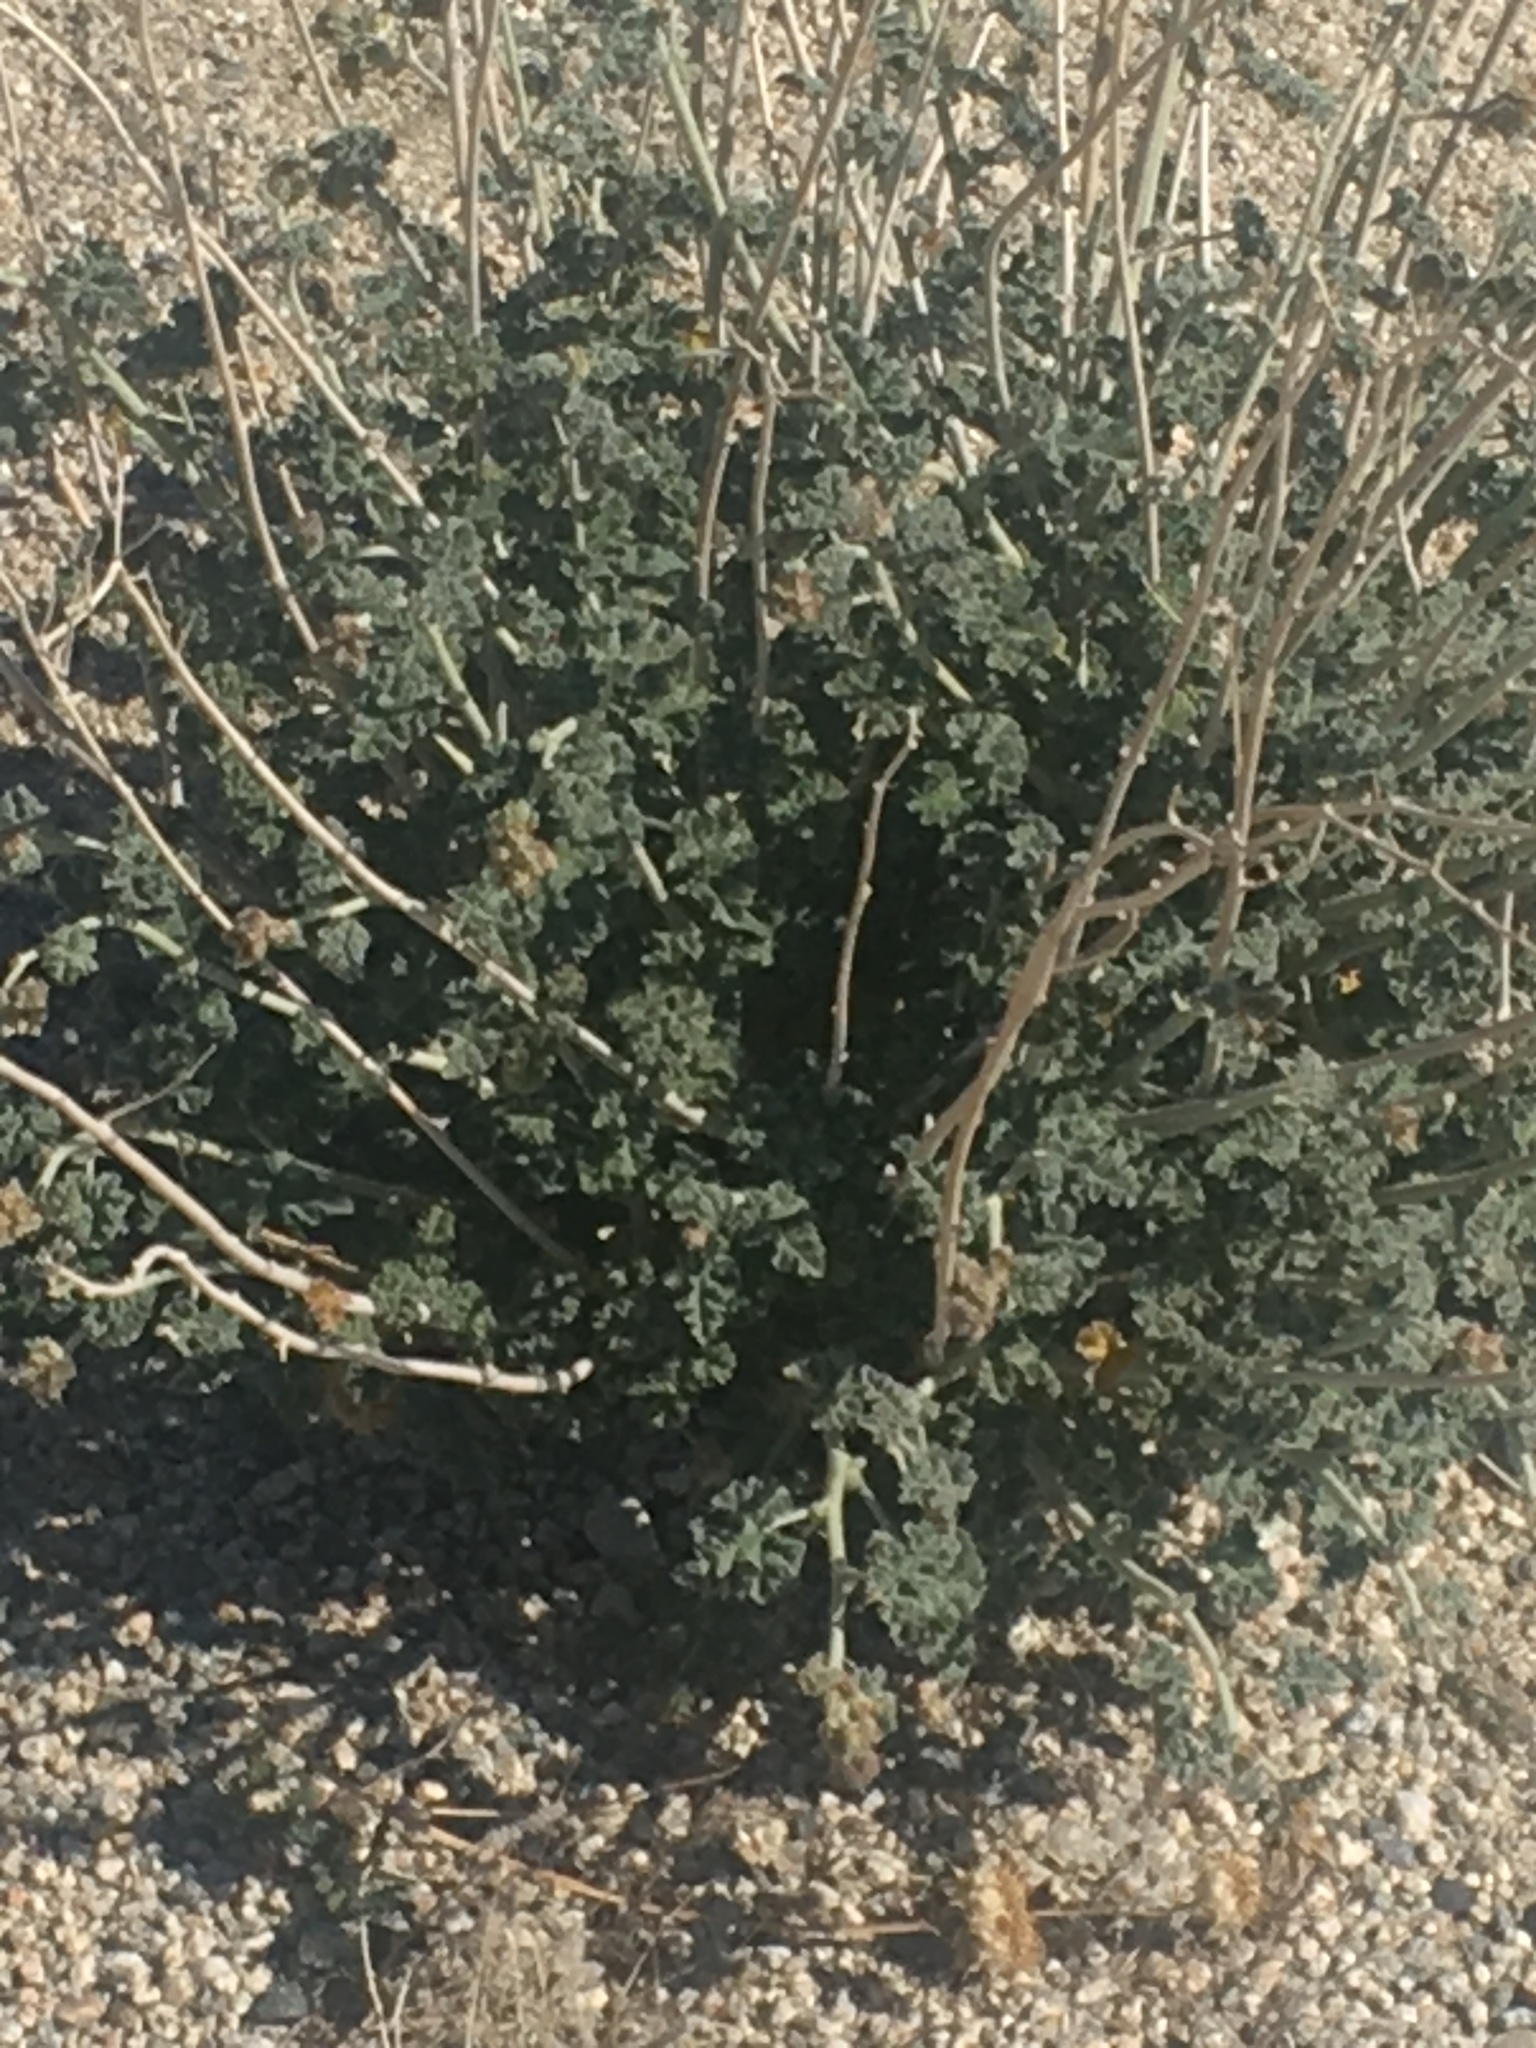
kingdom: Plantae
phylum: Tracheophyta
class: Magnoliopsida
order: Malvales
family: Malvaceae
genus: Sphaeralcea
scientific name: Sphaeralcea ambigua
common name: Apricot globe-mallow
